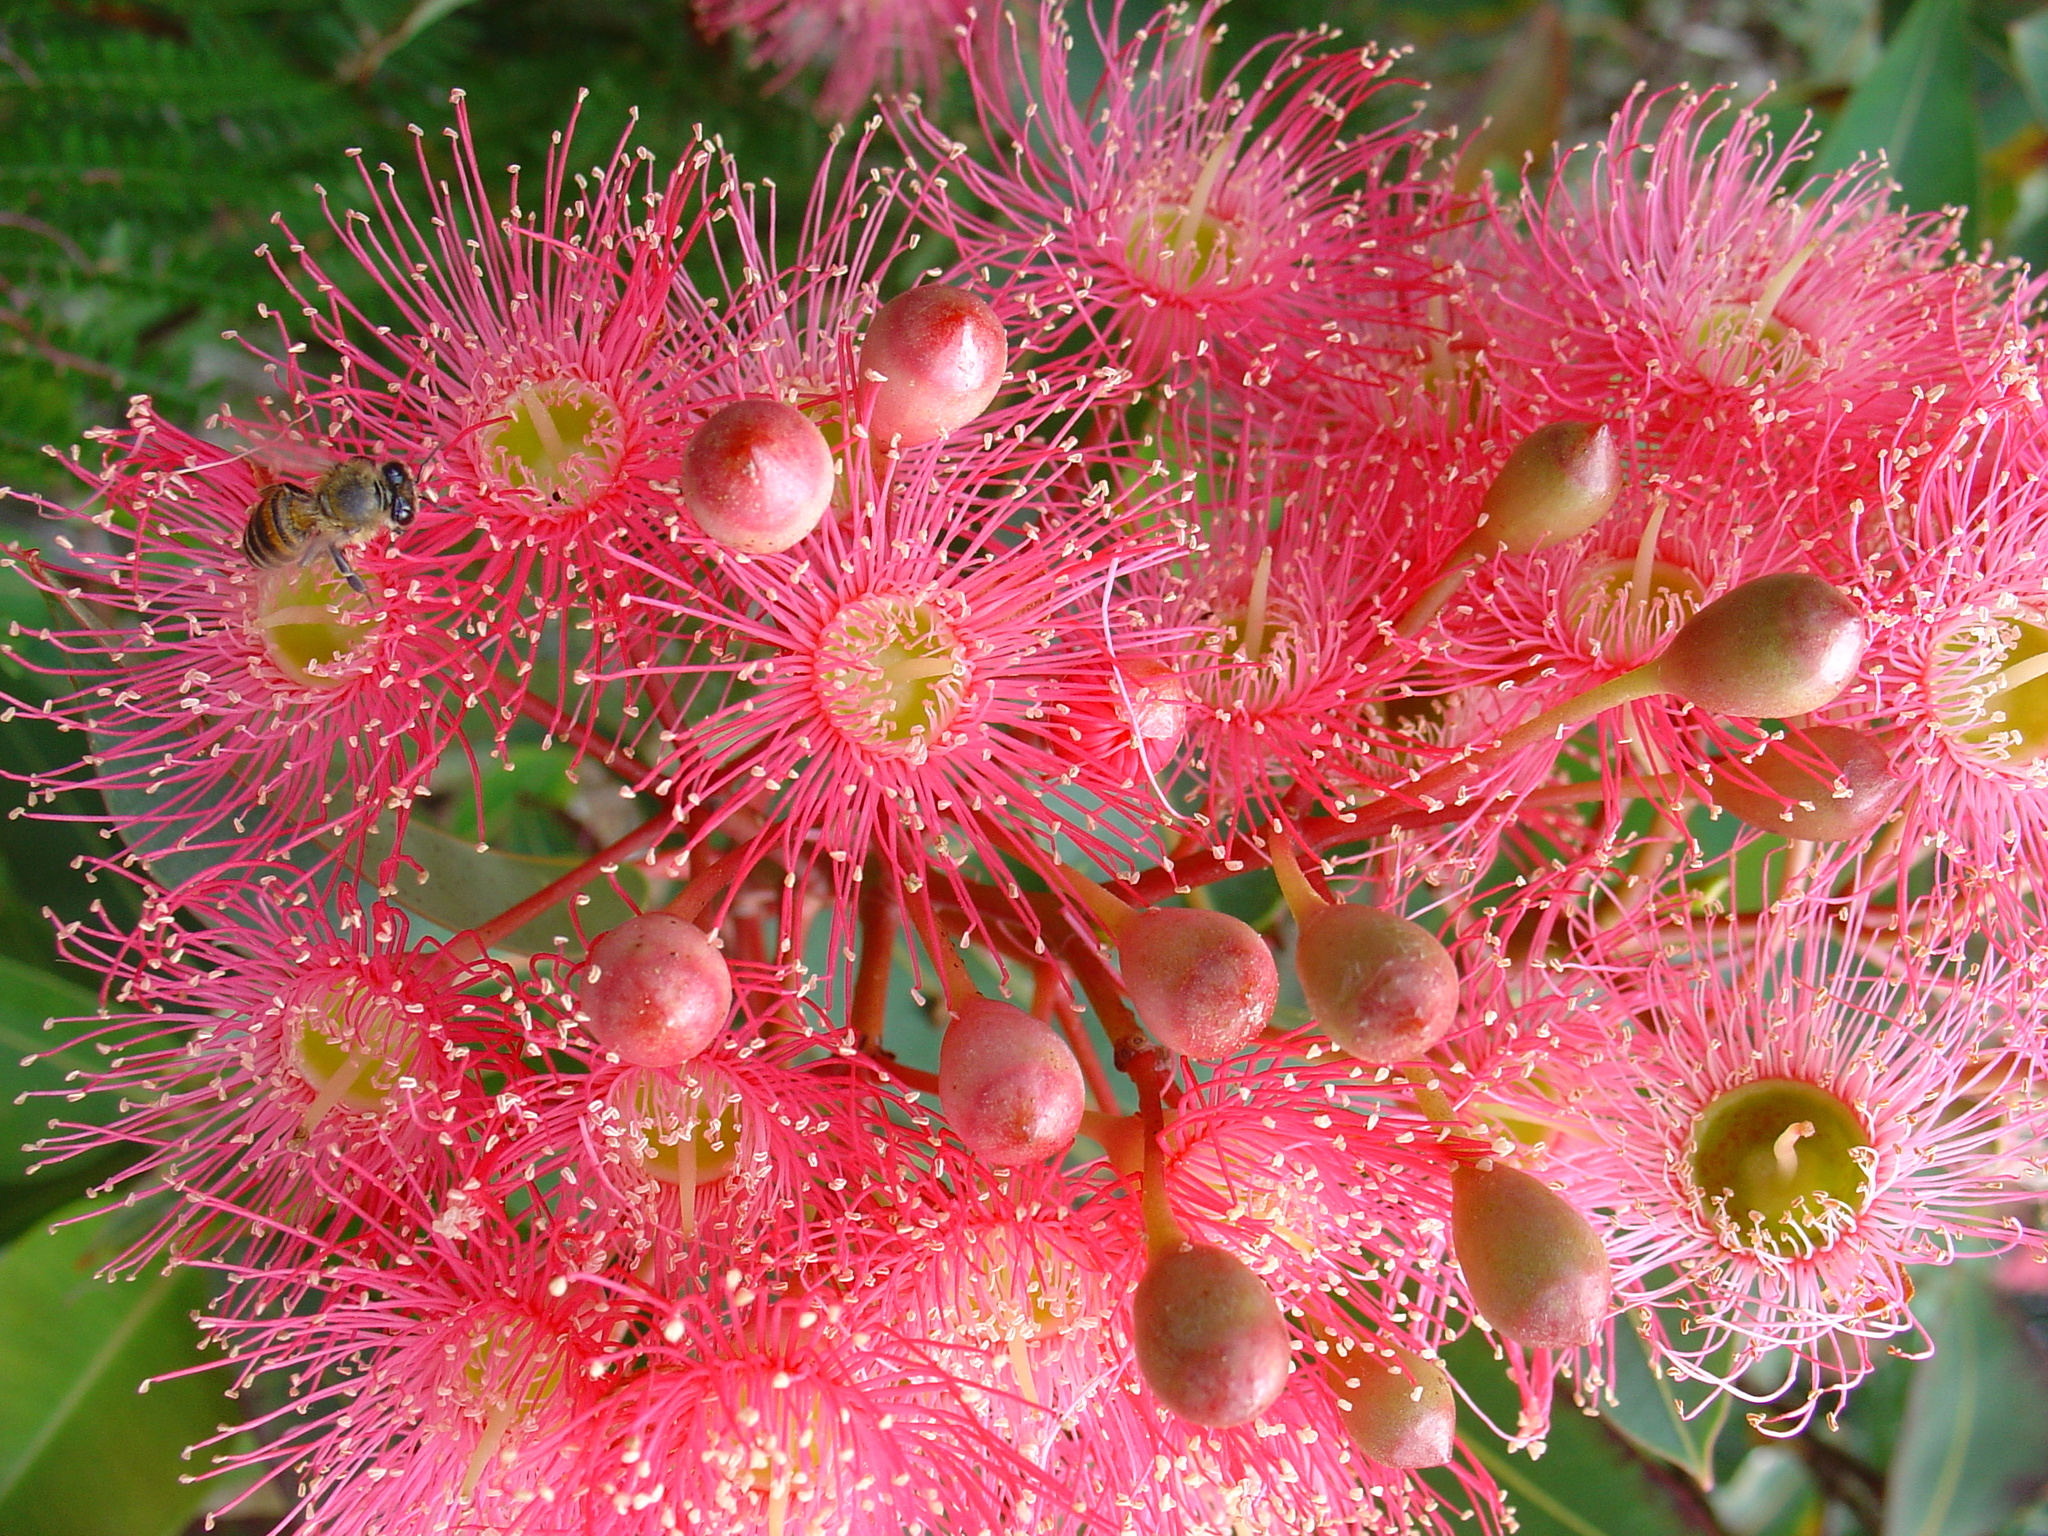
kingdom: Plantae
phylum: Tracheophyta
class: Magnoliopsida
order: Myrtales
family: Myrtaceae
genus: Corymbia
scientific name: Corymbia ficifolia
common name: Redflower gum
